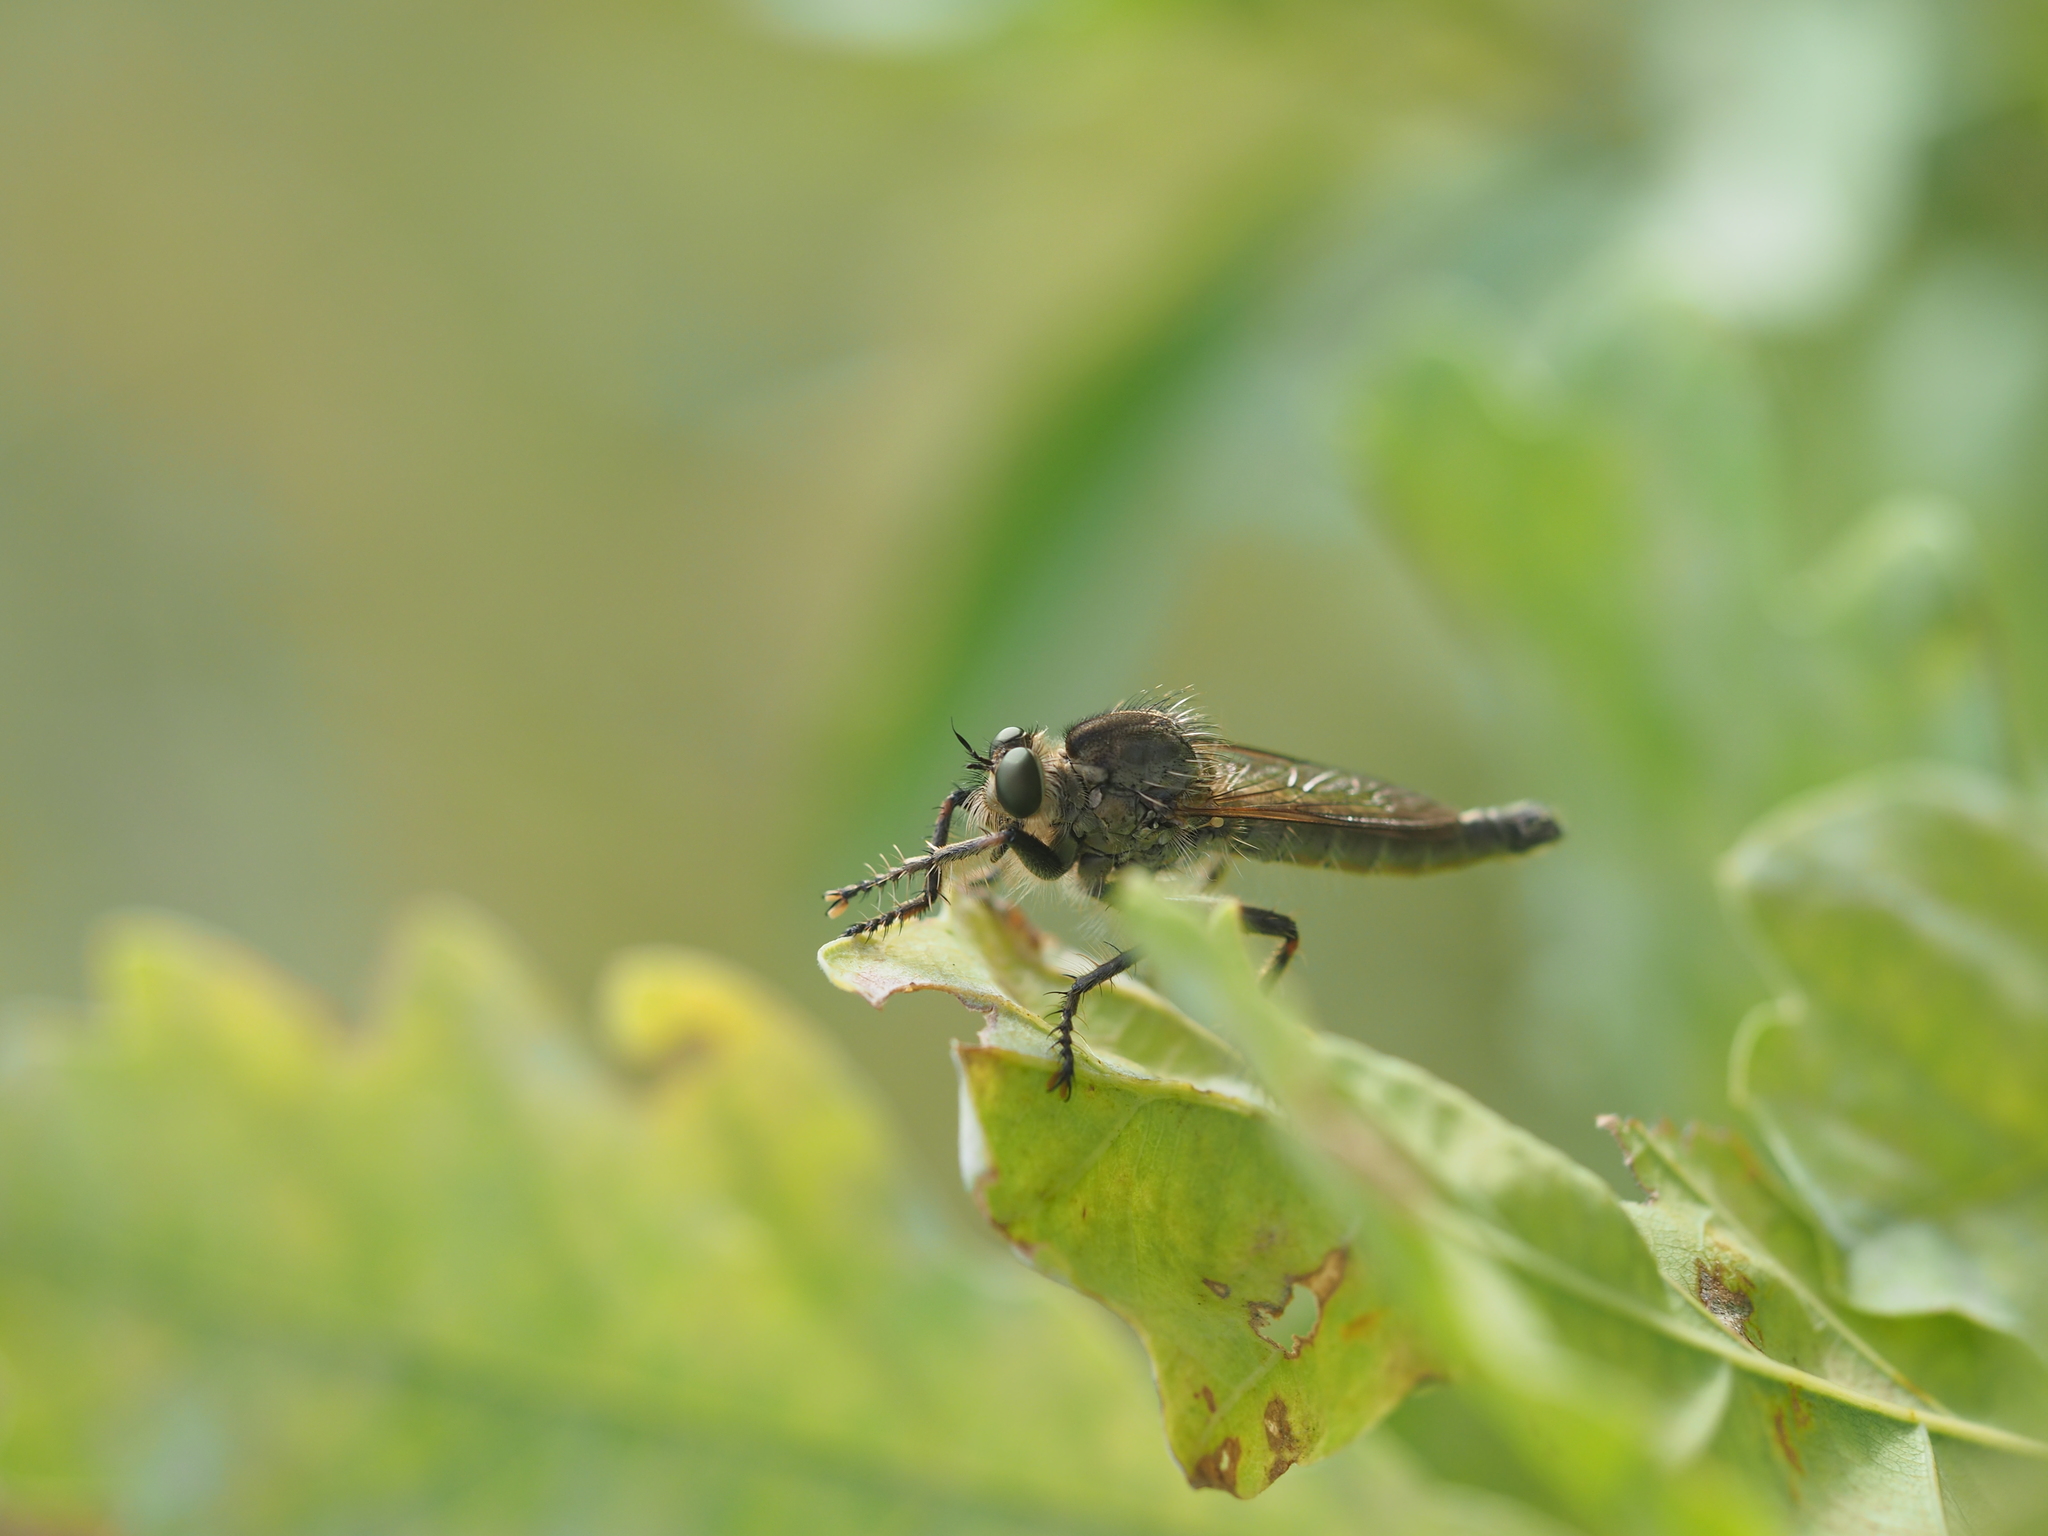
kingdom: Animalia
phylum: Arthropoda
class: Insecta
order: Diptera
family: Asilidae
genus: Machimus
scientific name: Machimus rusticus
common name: Downland robberfly
